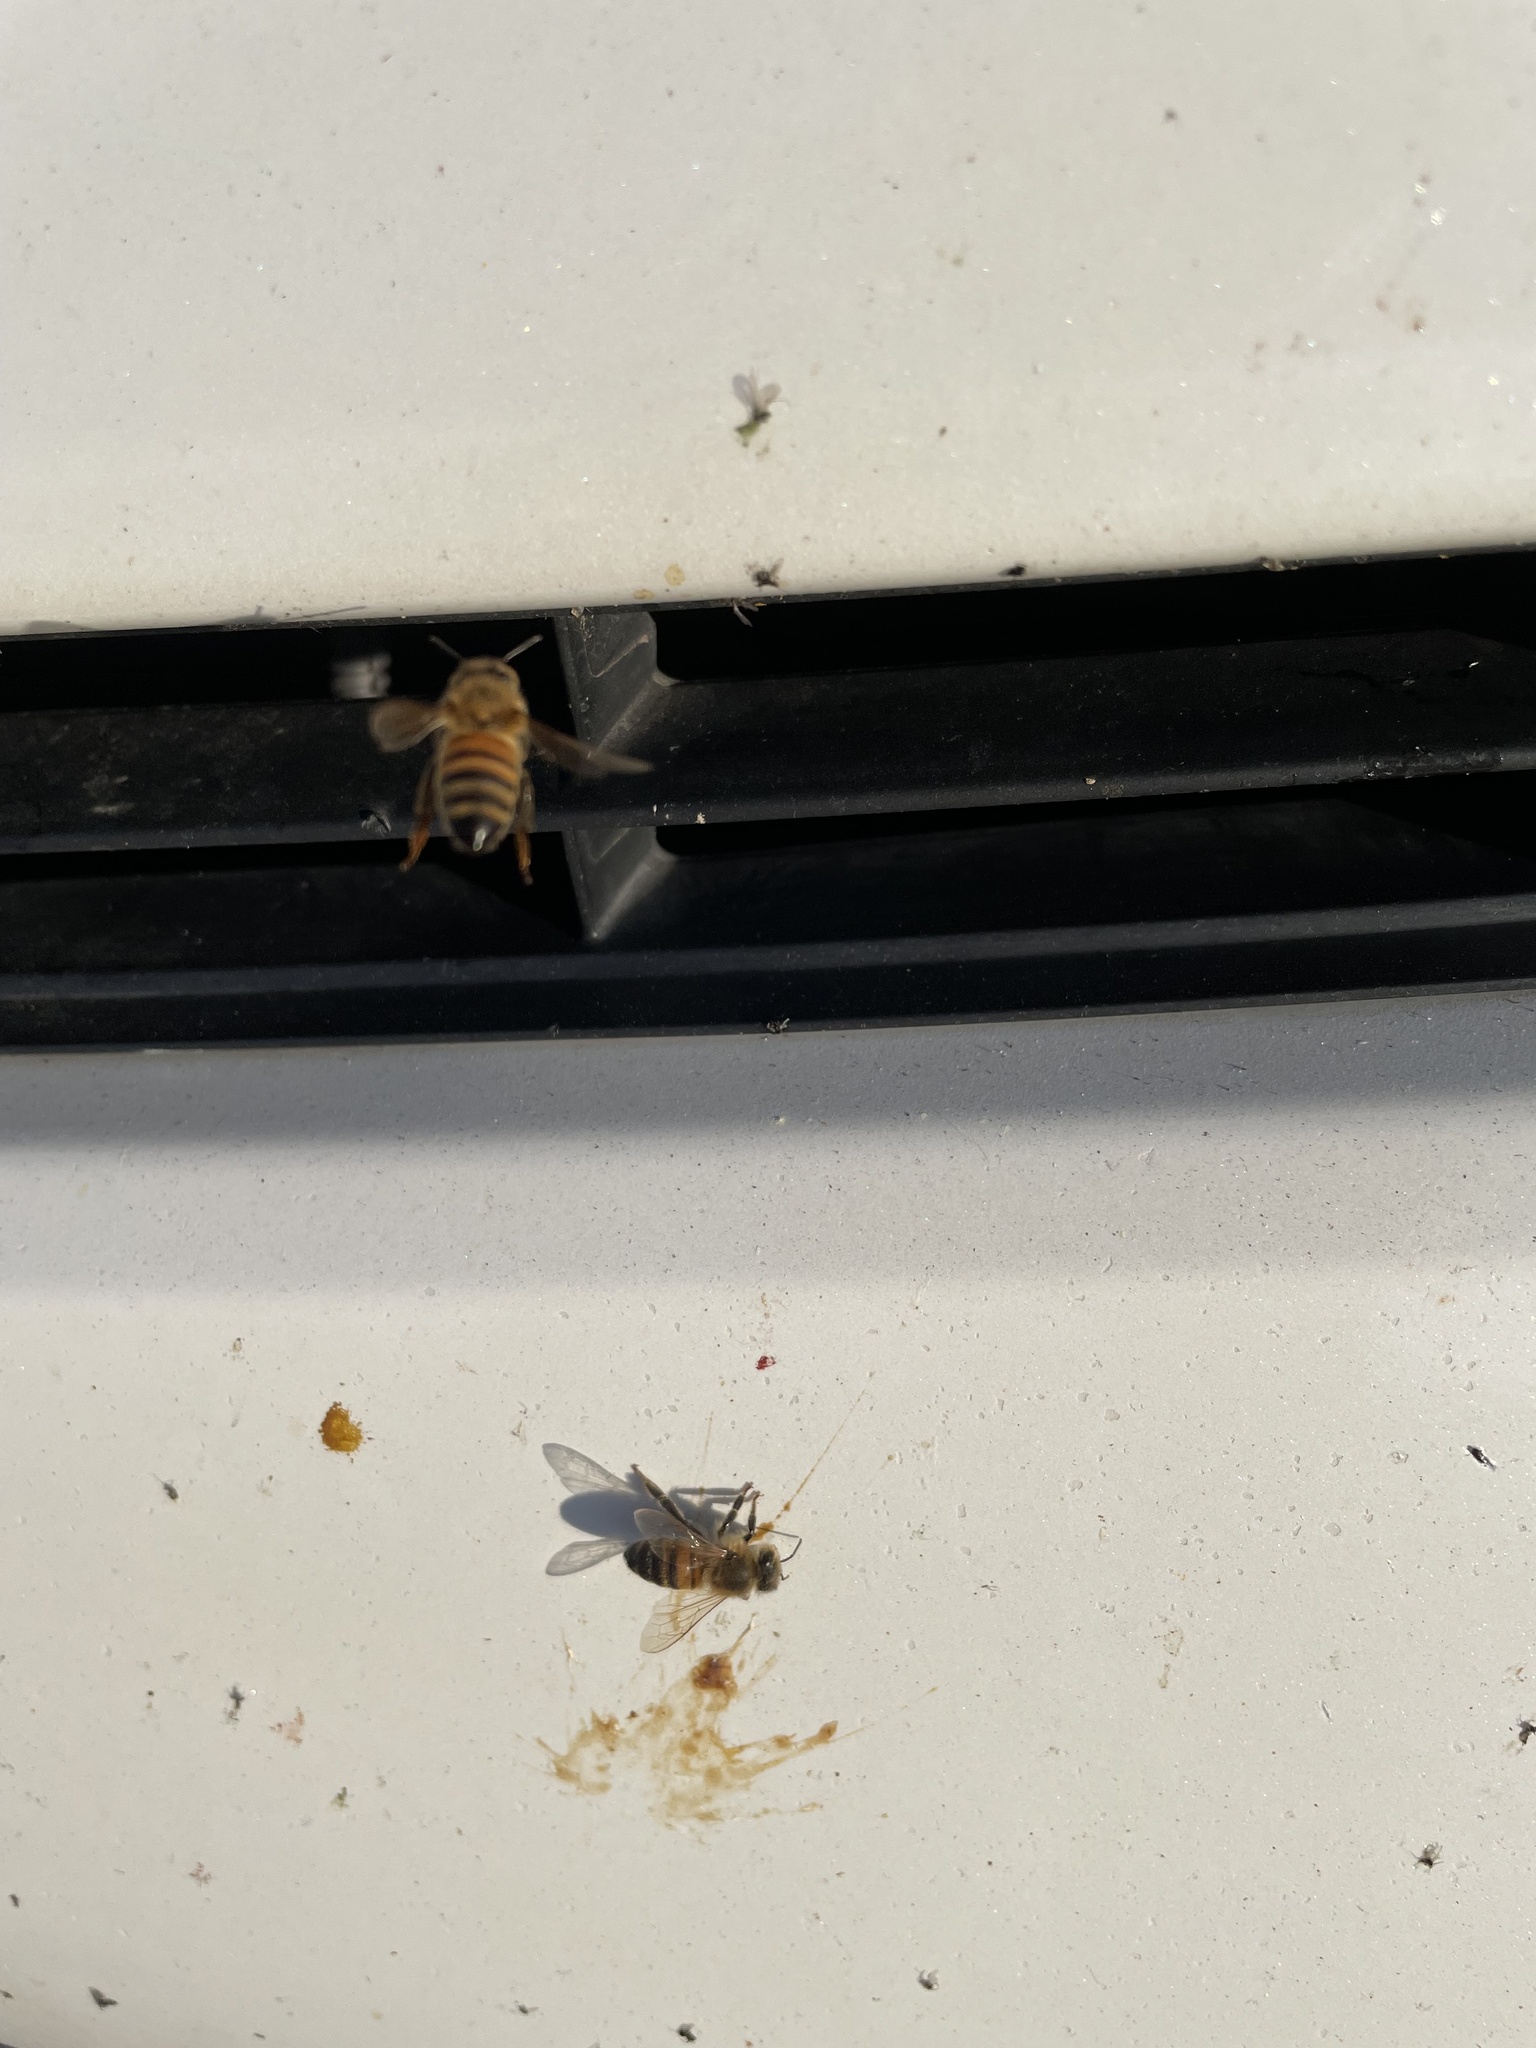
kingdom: Animalia
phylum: Arthropoda
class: Insecta
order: Hymenoptera
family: Apidae
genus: Apis
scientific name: Apis mellifera
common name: Honey bee
